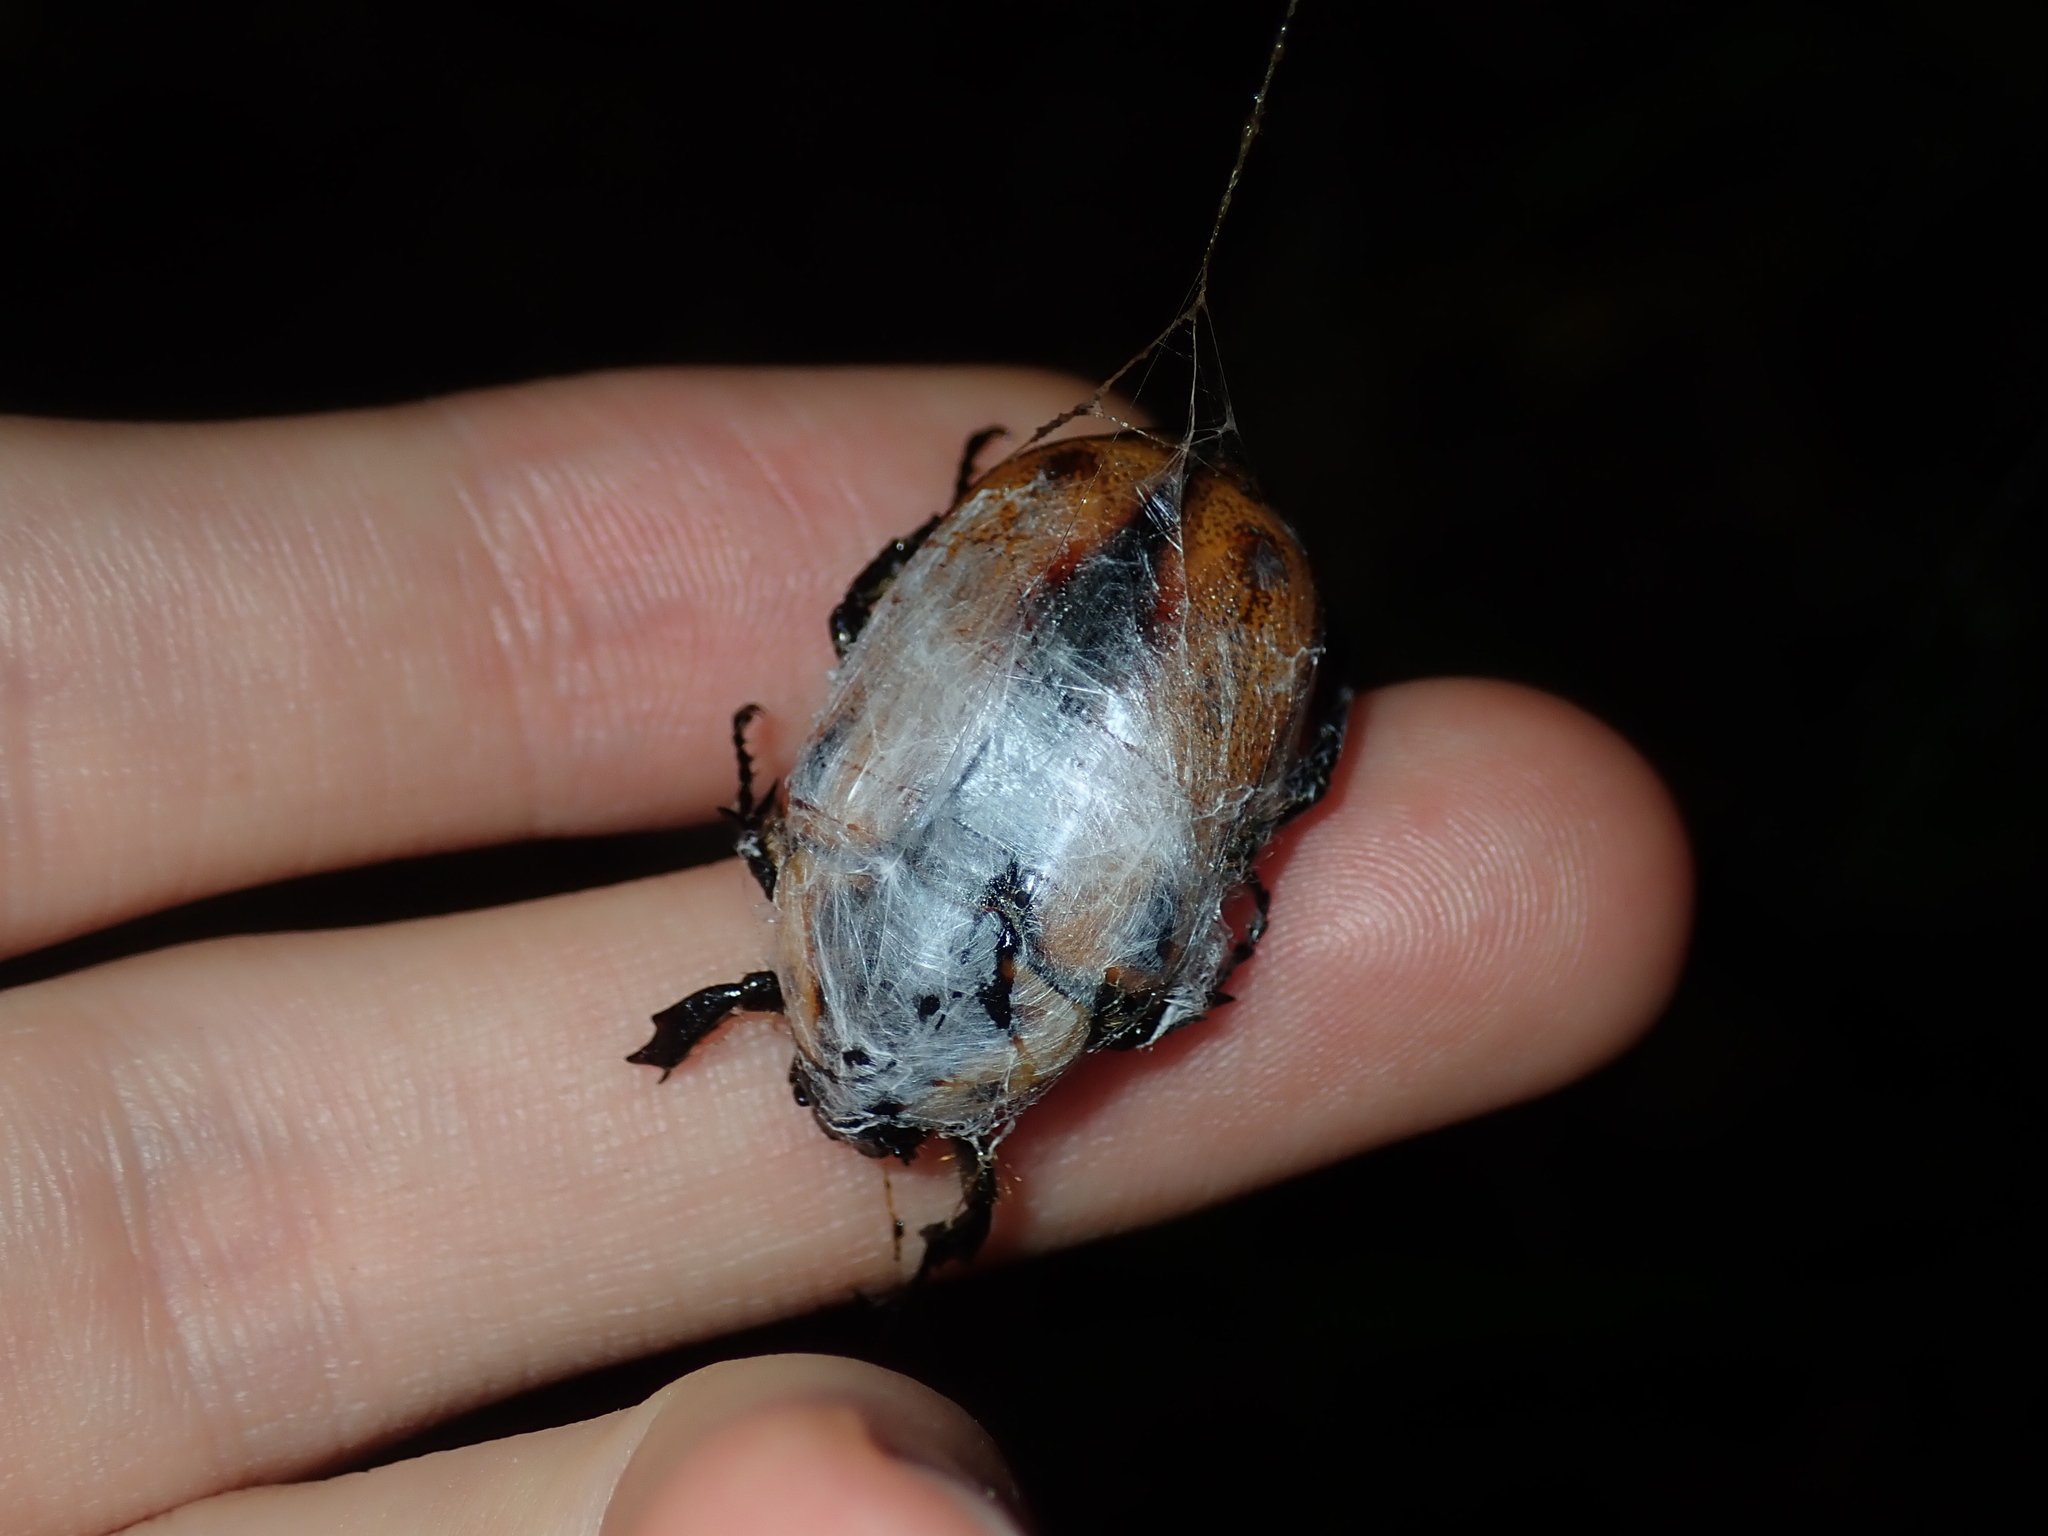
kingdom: Animalia
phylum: Arthropoda
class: Insecta
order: Coleoptera
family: Scarabaeidae
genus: Chondropyga
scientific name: Chondropyga dorsalis
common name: Cowboy beetle
